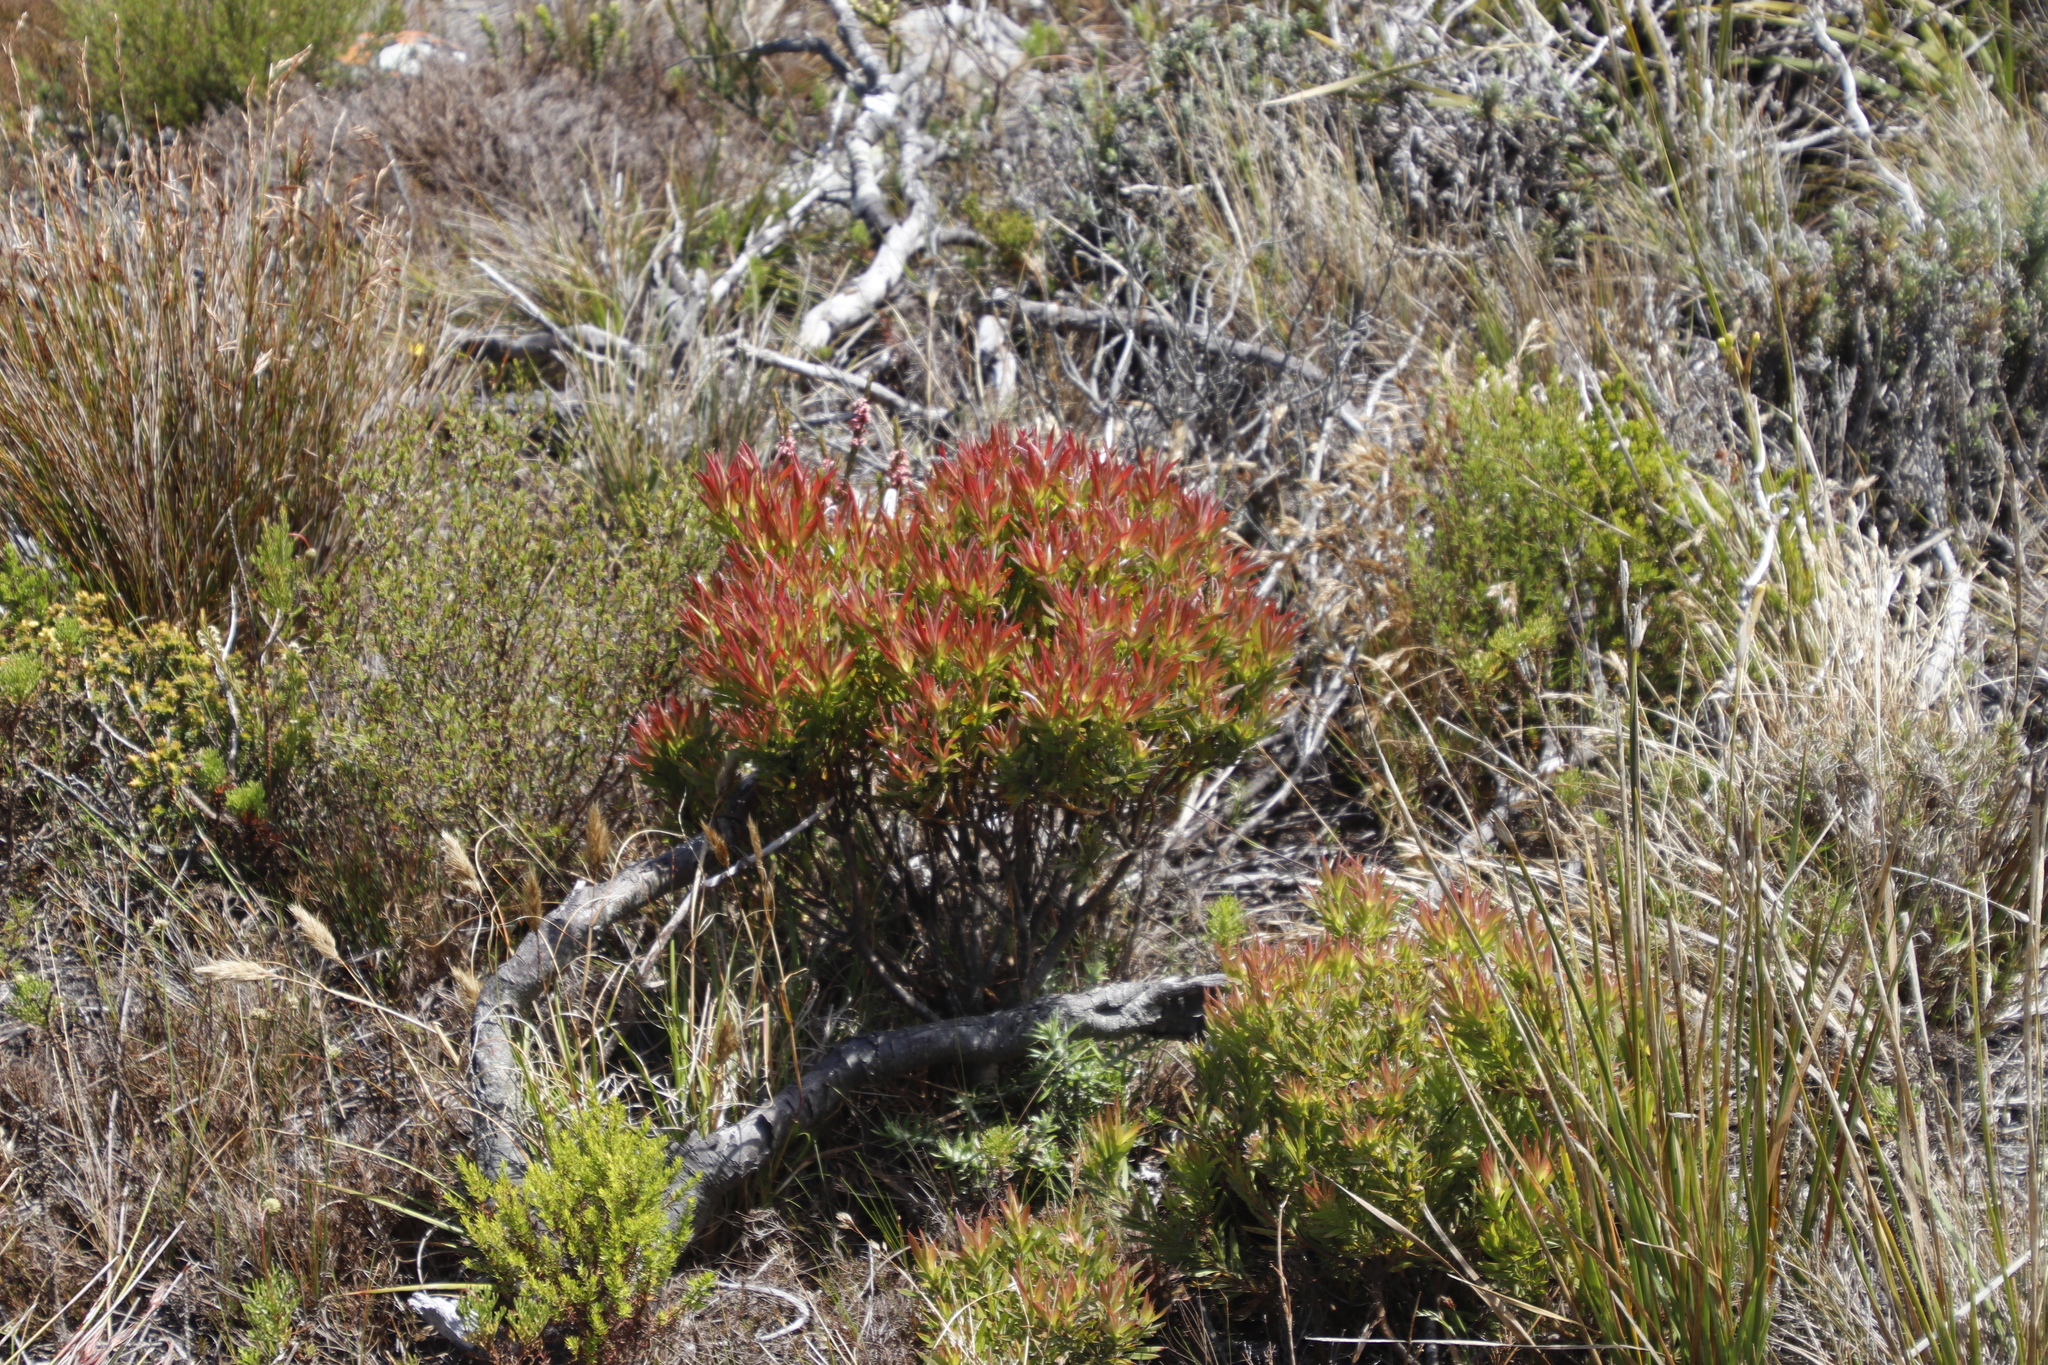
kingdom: Plantae
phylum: Tracheophyta
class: Magnoliopsida
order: Proteales
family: Proteaceae
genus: Leucadendron
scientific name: Leucadendron xanthoconus
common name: Sickle-leaf conebush
